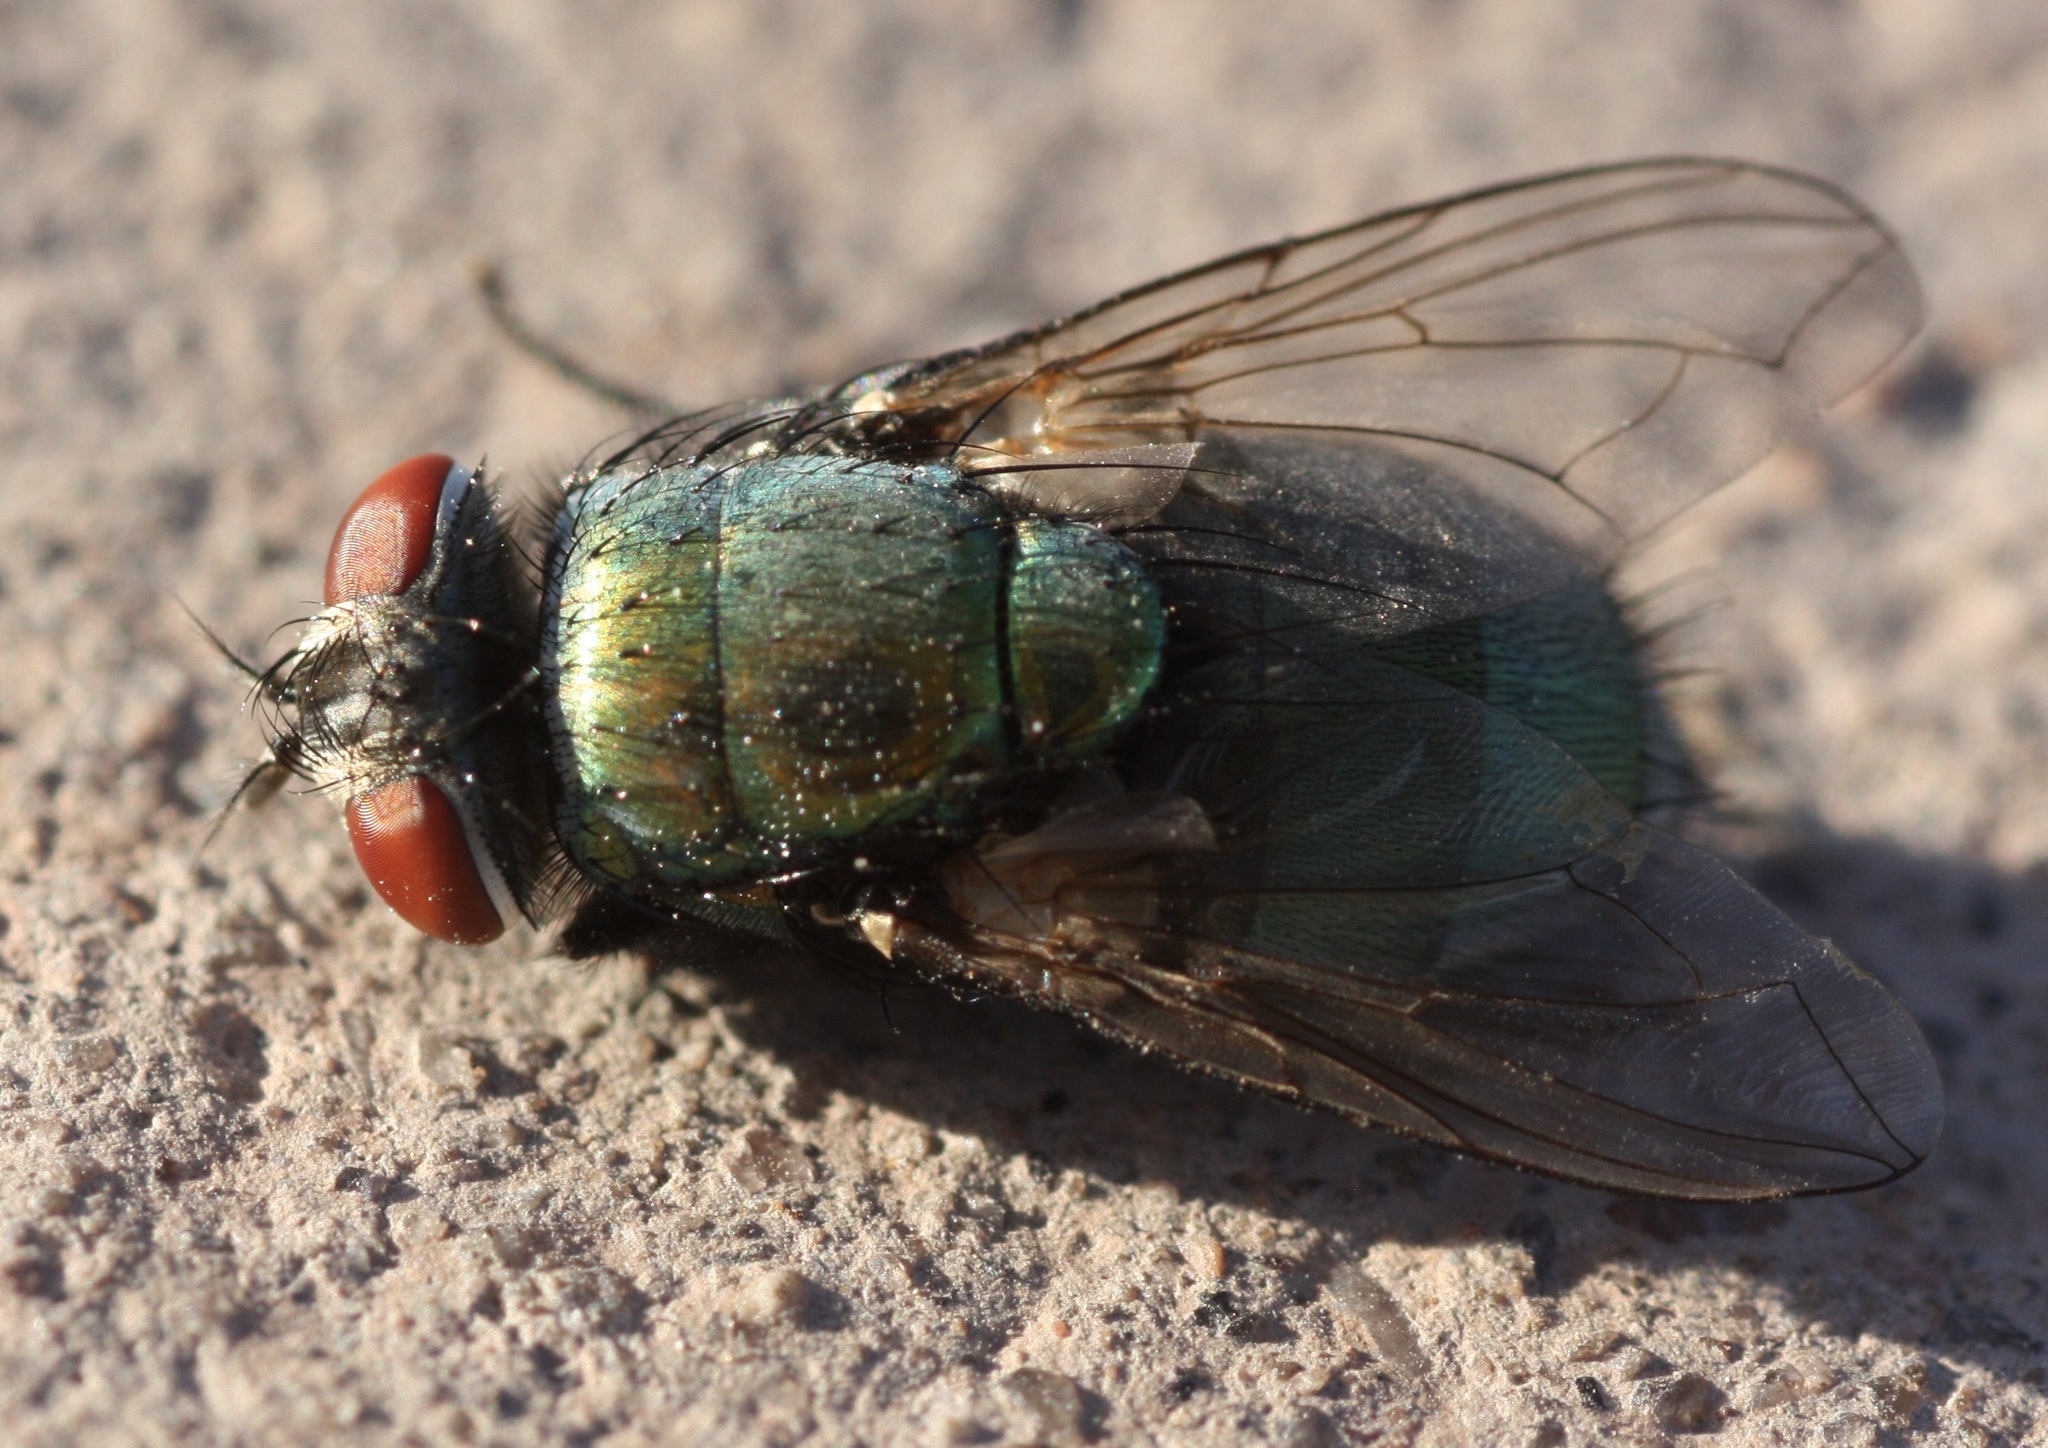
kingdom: Animalia
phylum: Arthropoda
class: Insecta
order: Diptera
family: Calliphoridae
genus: Lucilia
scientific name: Lucilia sericata
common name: Blow fly
